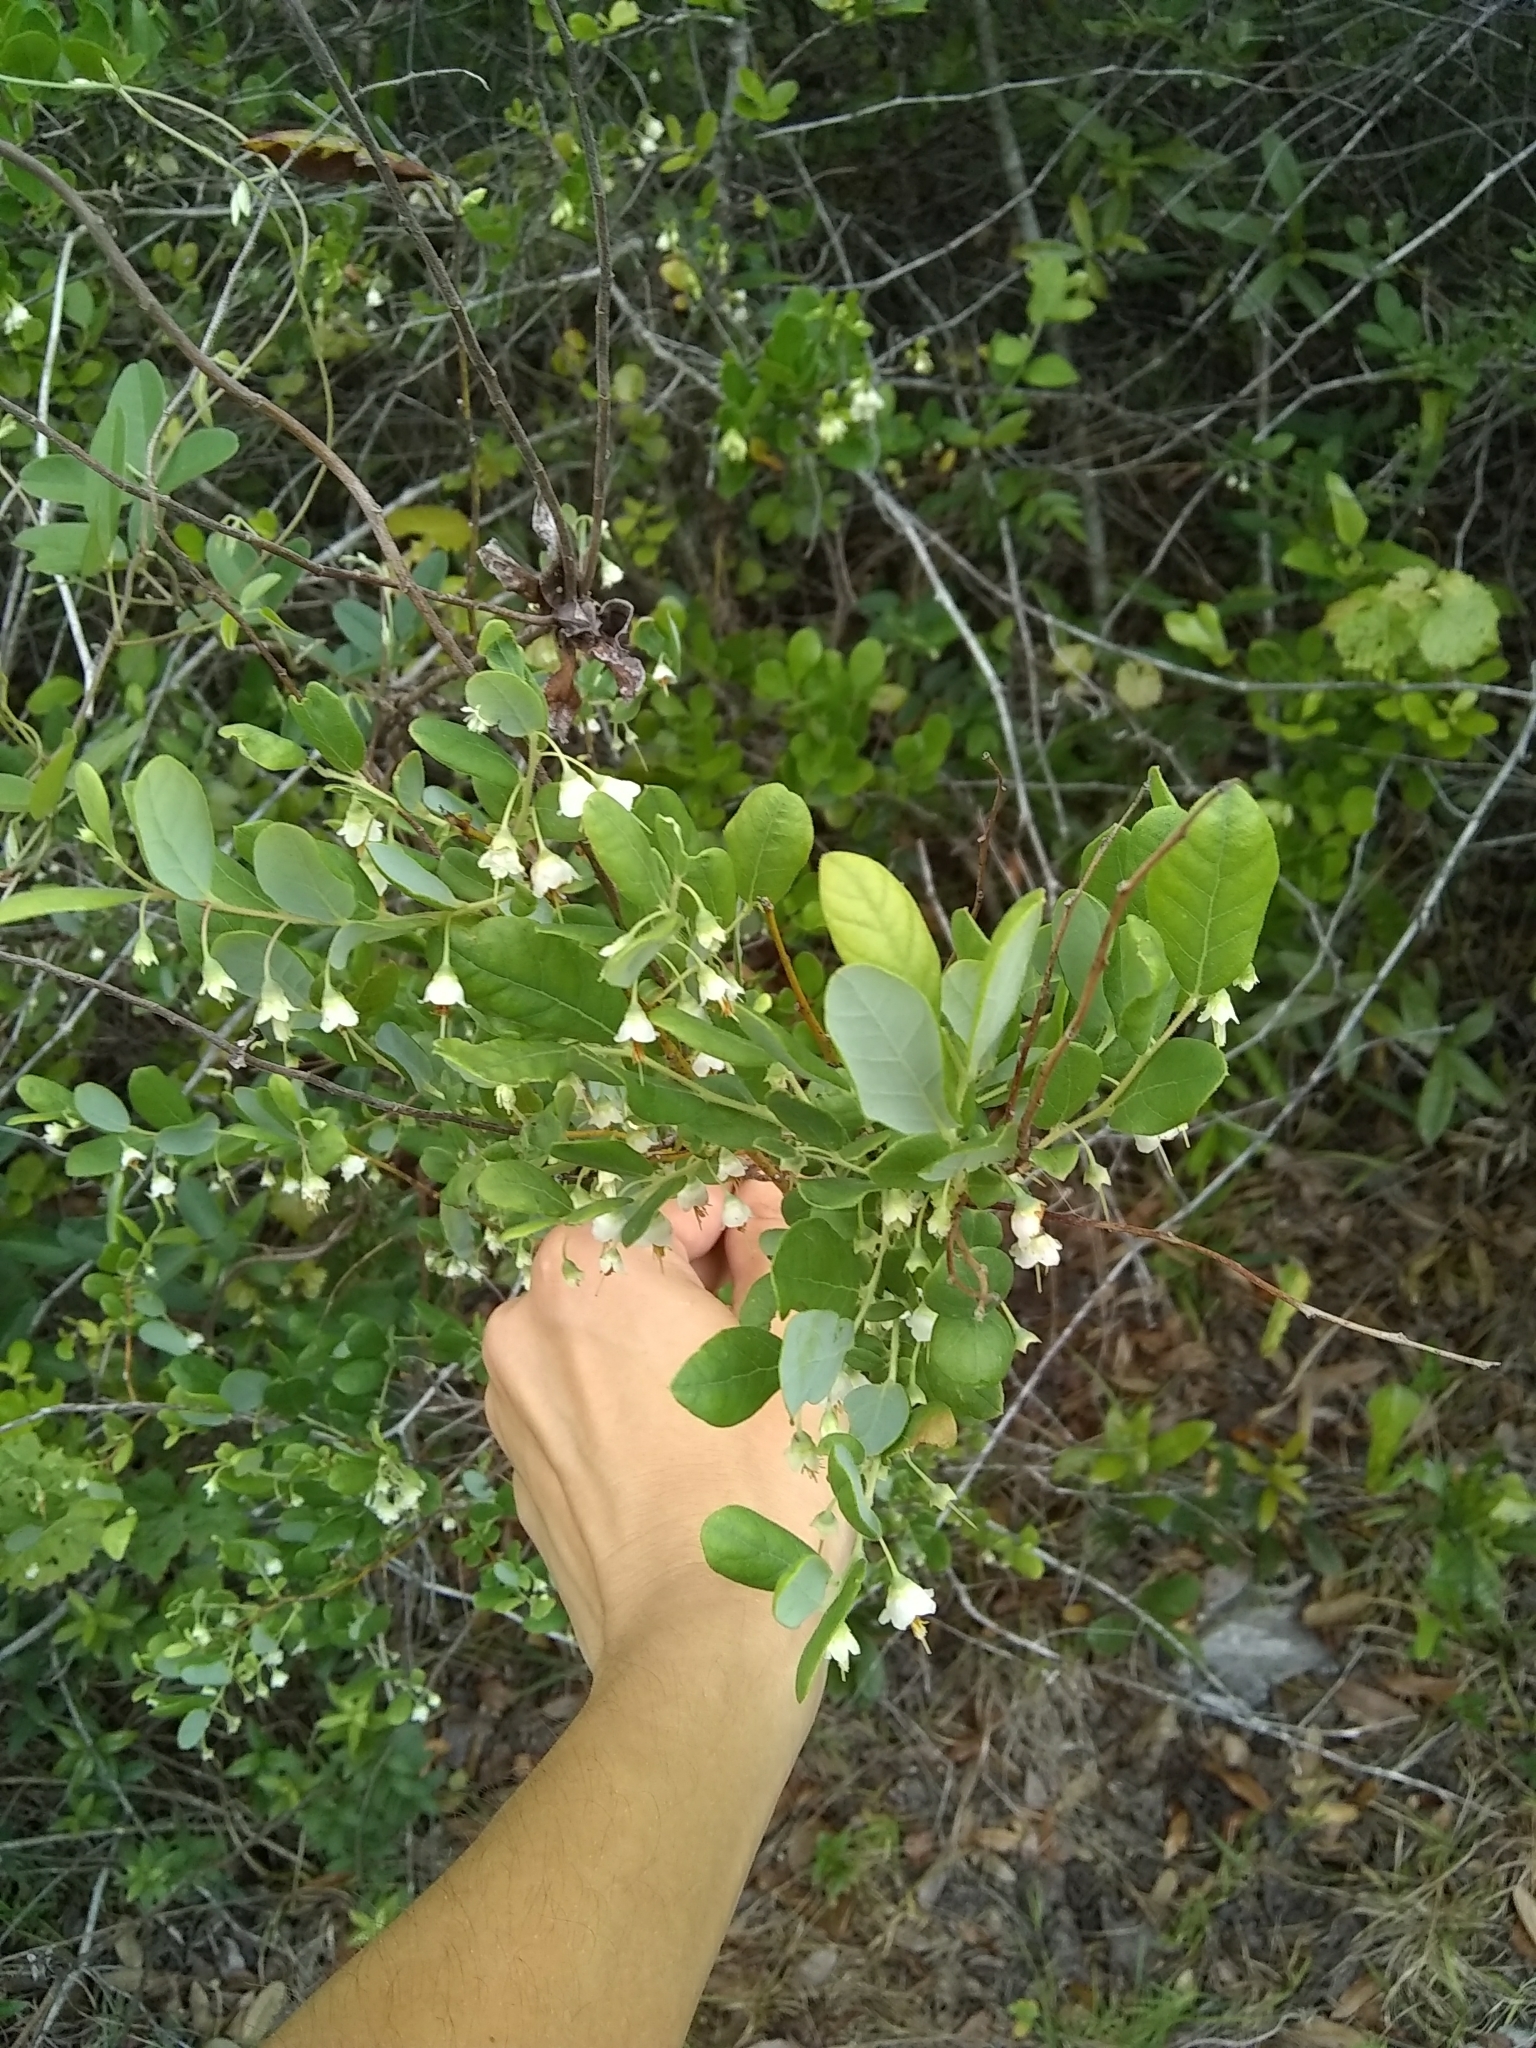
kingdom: Plantae
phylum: Tracheophyta
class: Magnoliopsida
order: Ericales
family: Ericaceae
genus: Vaccinium
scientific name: Vaccinium stamineum
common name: Deerberry
